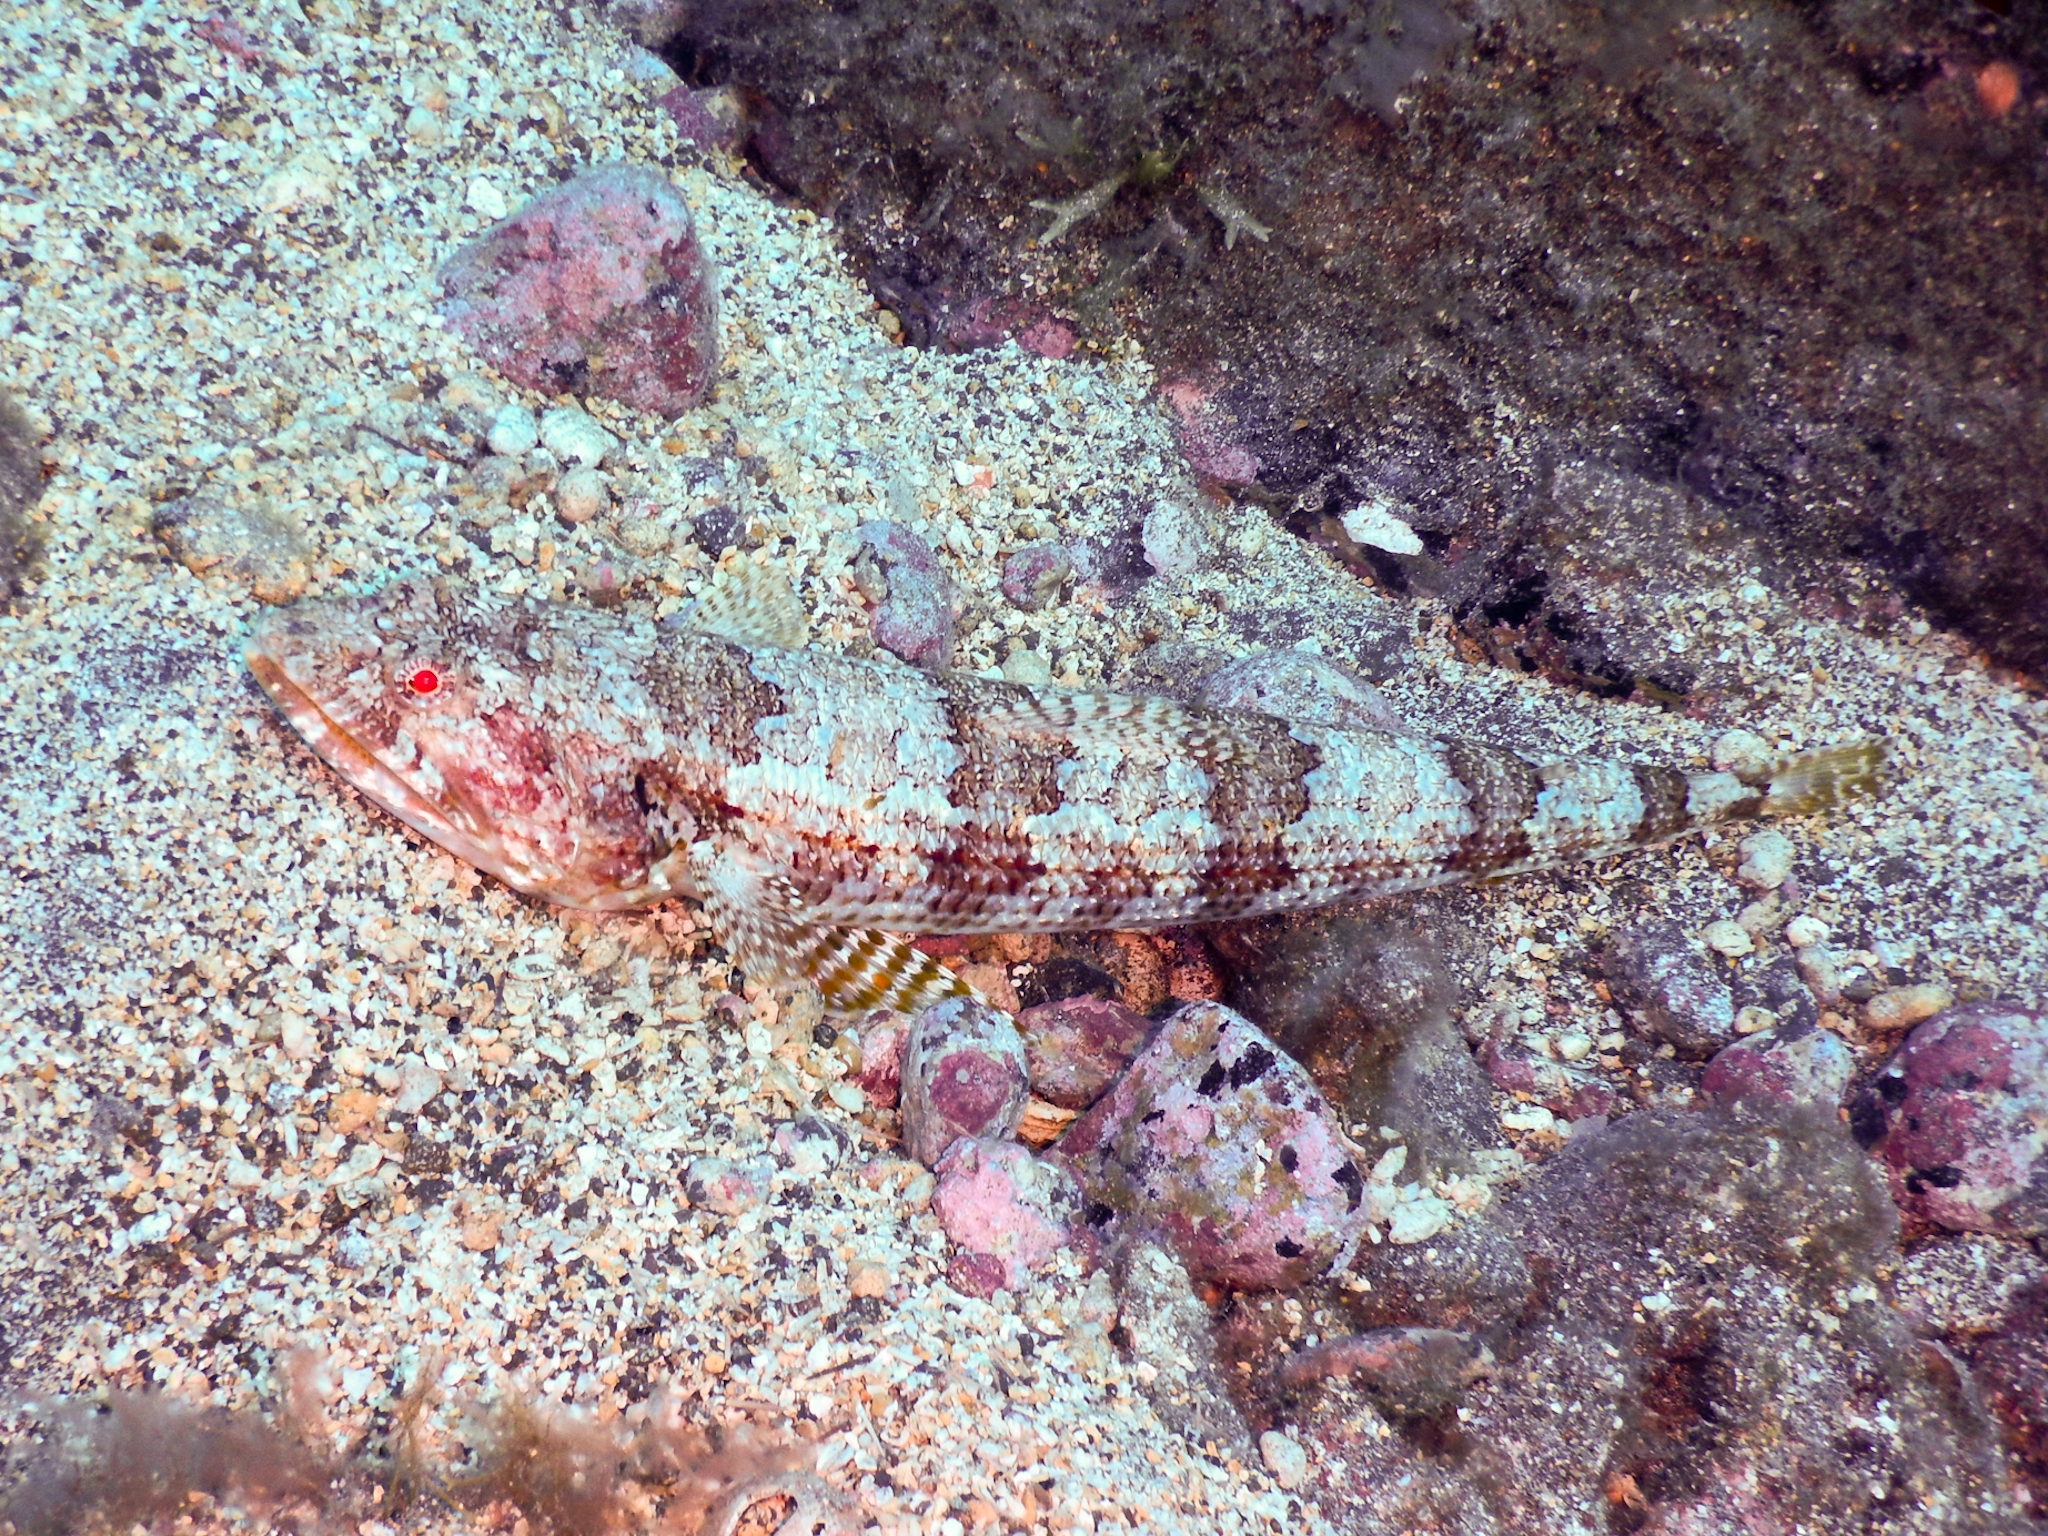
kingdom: Animalia
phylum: Chordata
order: Aulopiformes
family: Synodontidae
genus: Synodus
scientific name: Synodus synodus
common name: Red lizardfish
